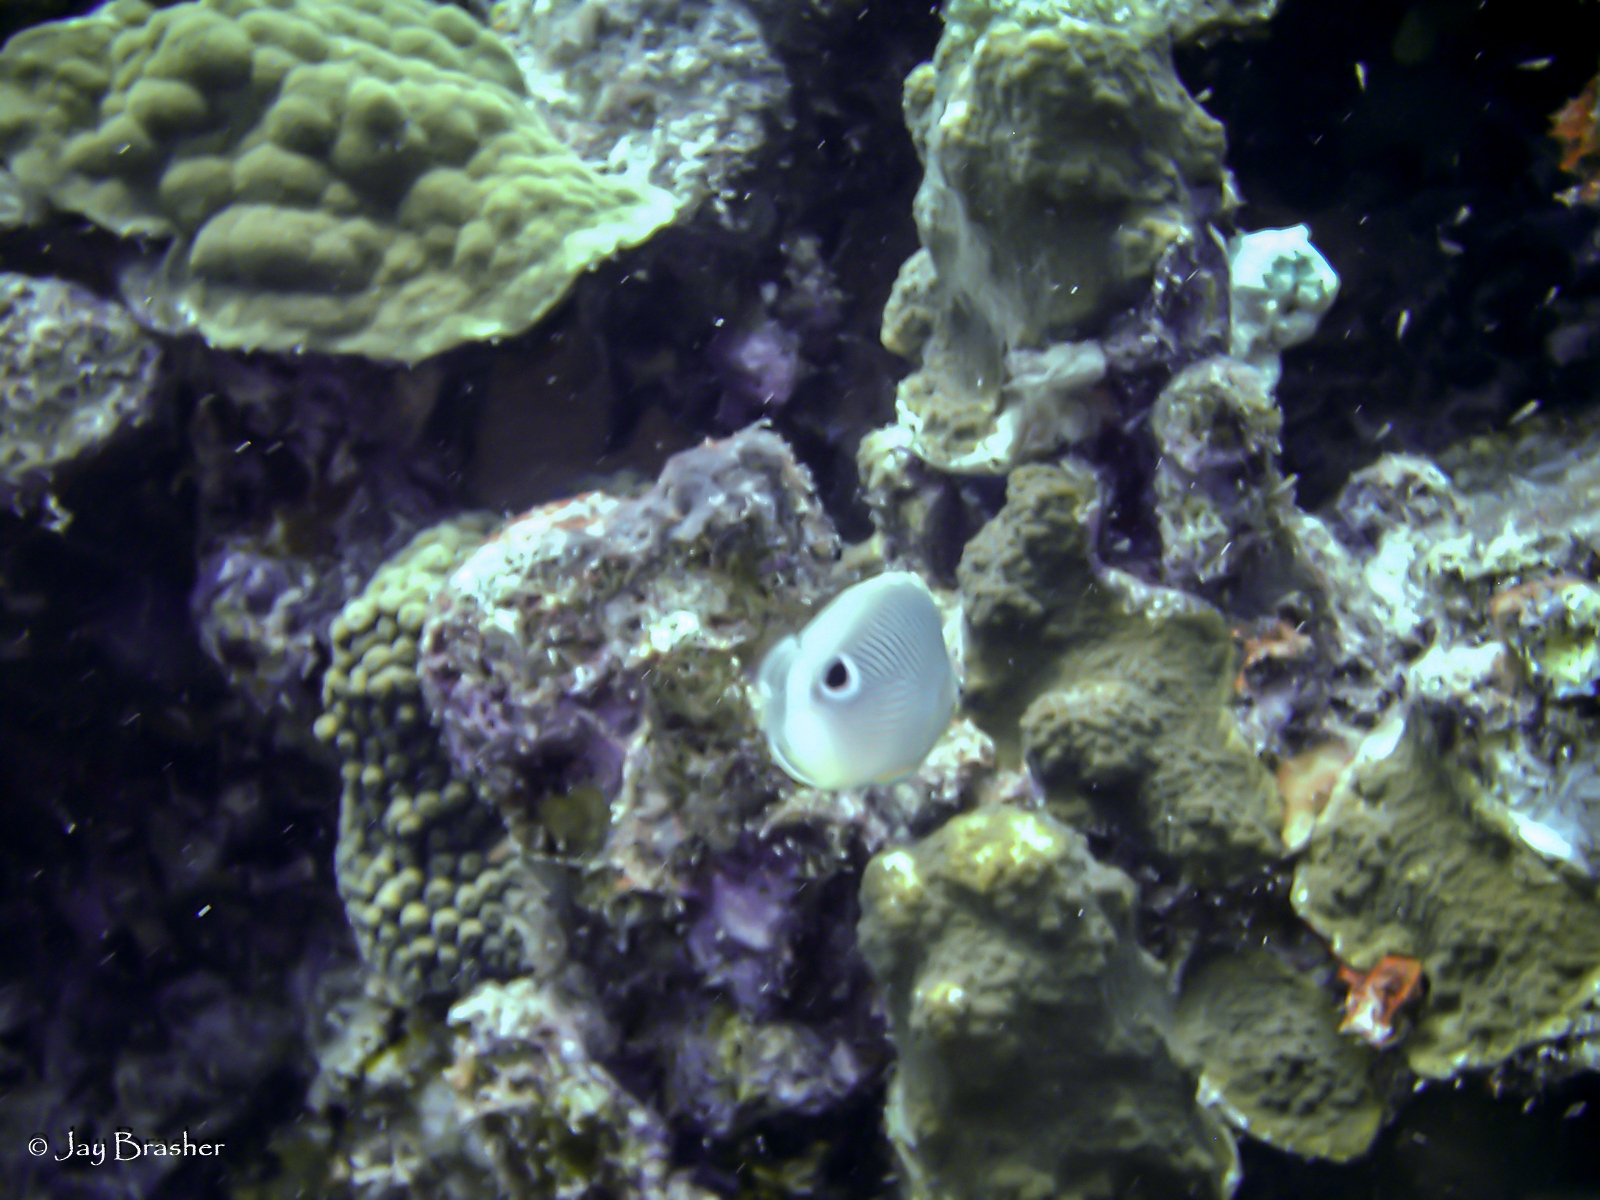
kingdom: Animalia
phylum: Chordata
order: Perciformes
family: Chaetodontidae
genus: Chaetodon
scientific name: Chaetodon capistratus
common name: Kete
